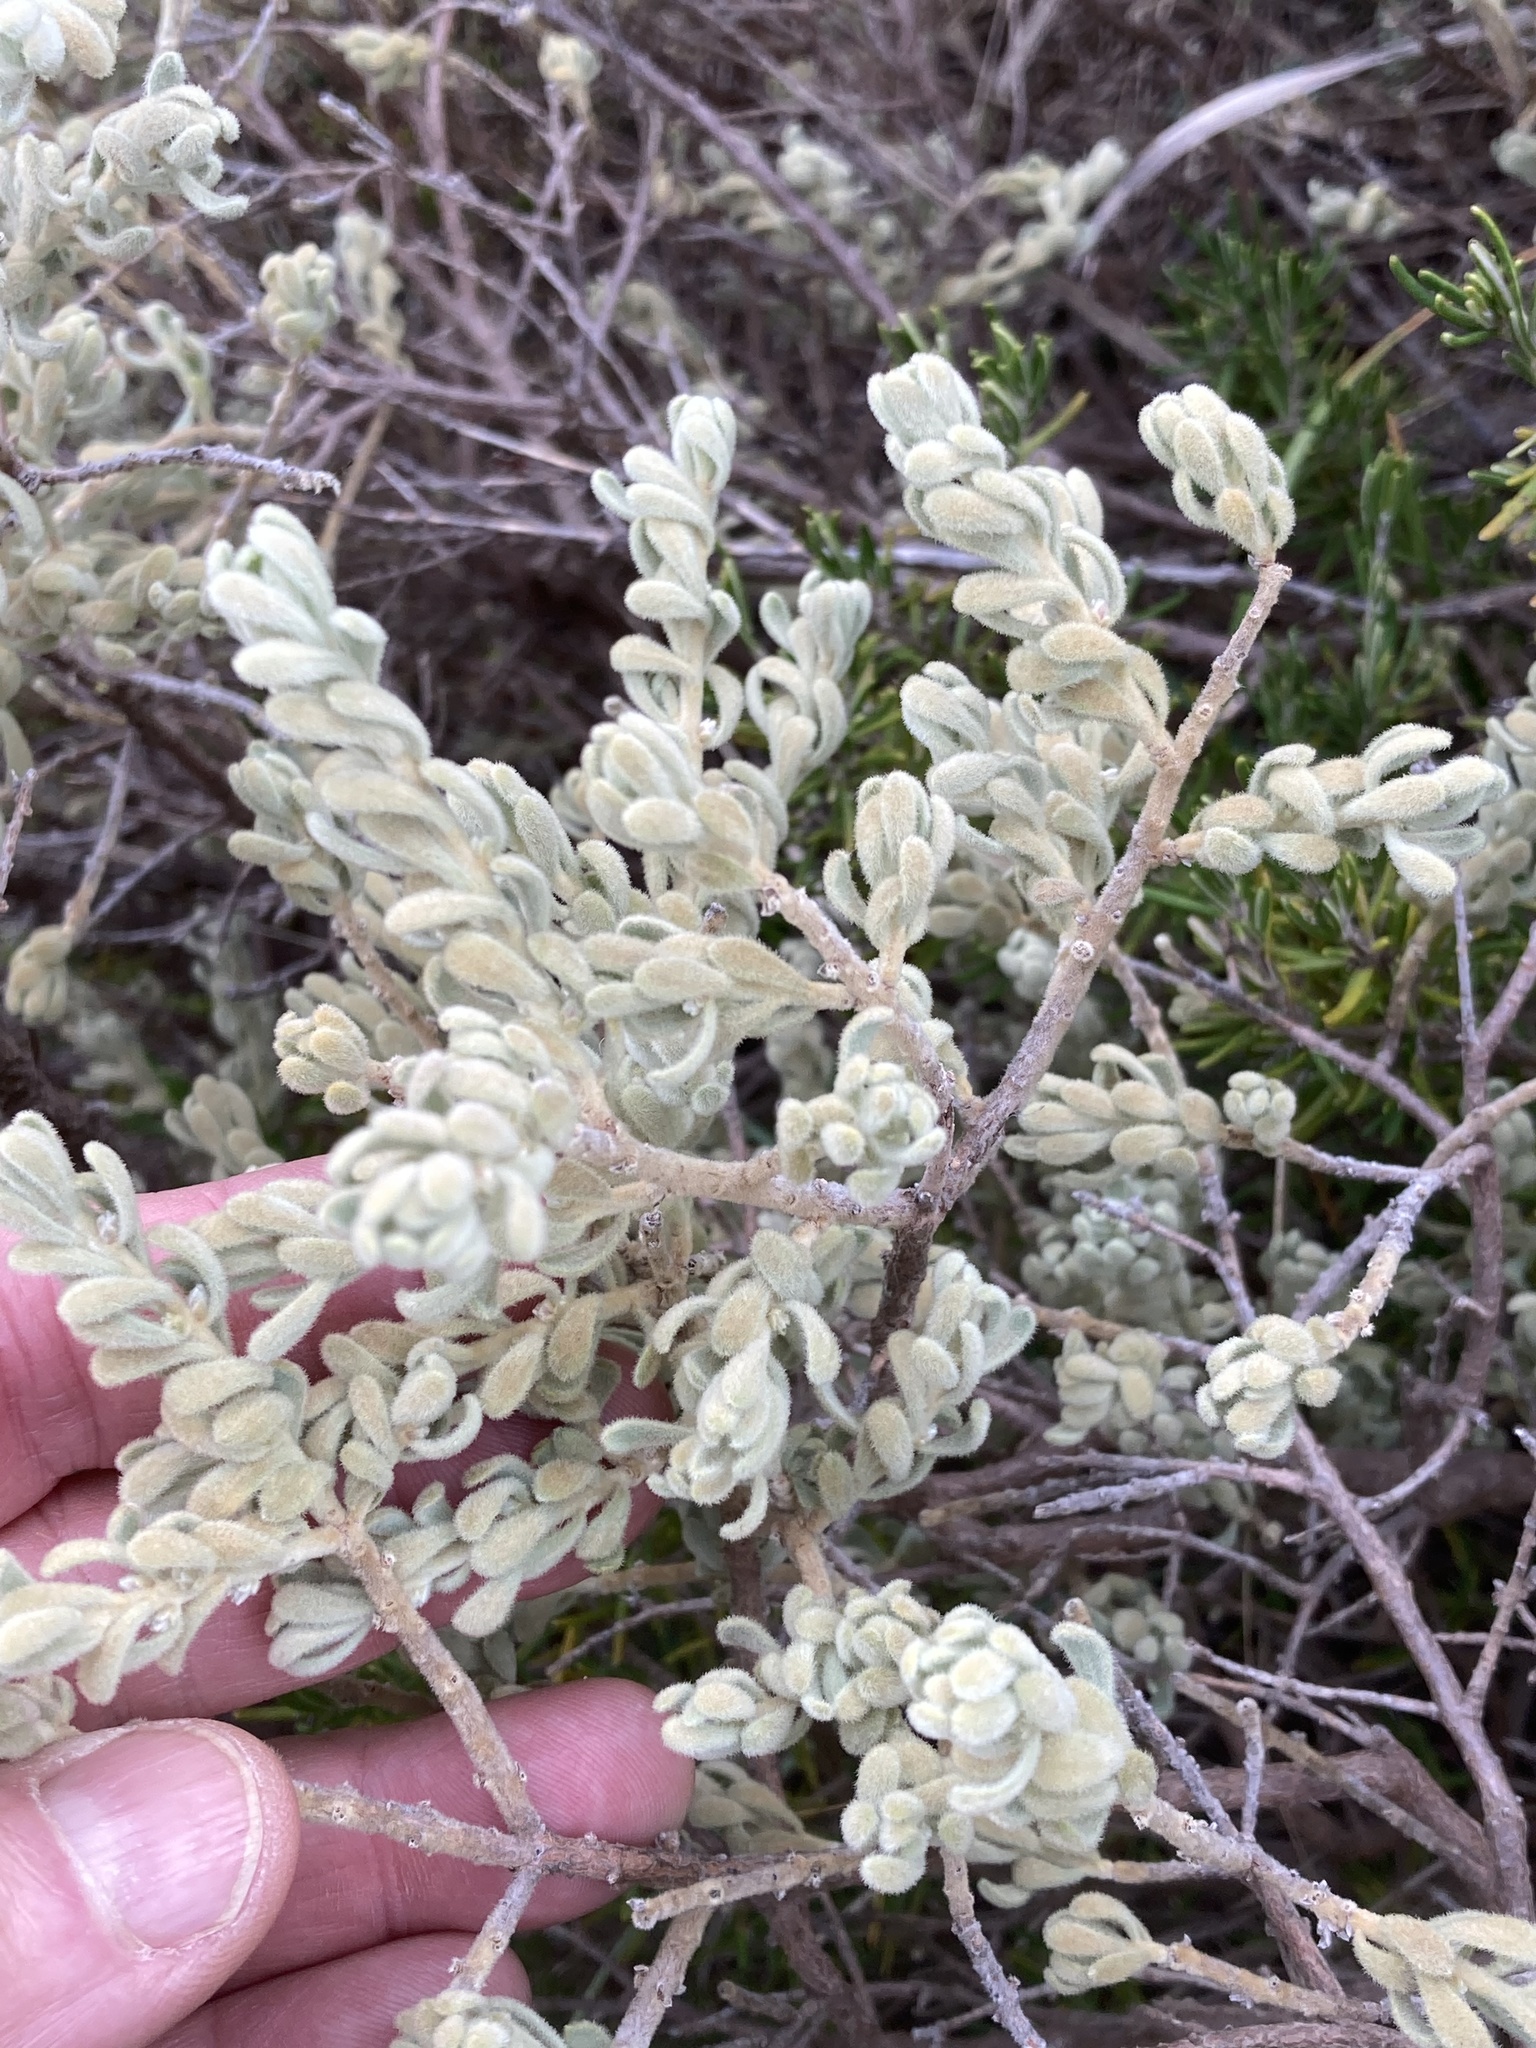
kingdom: Plantae
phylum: Tracheophyta
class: Magnoliopsida
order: Malvales
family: Thymelaeaceae
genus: Thymelaea
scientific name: Thymelaea velutina
